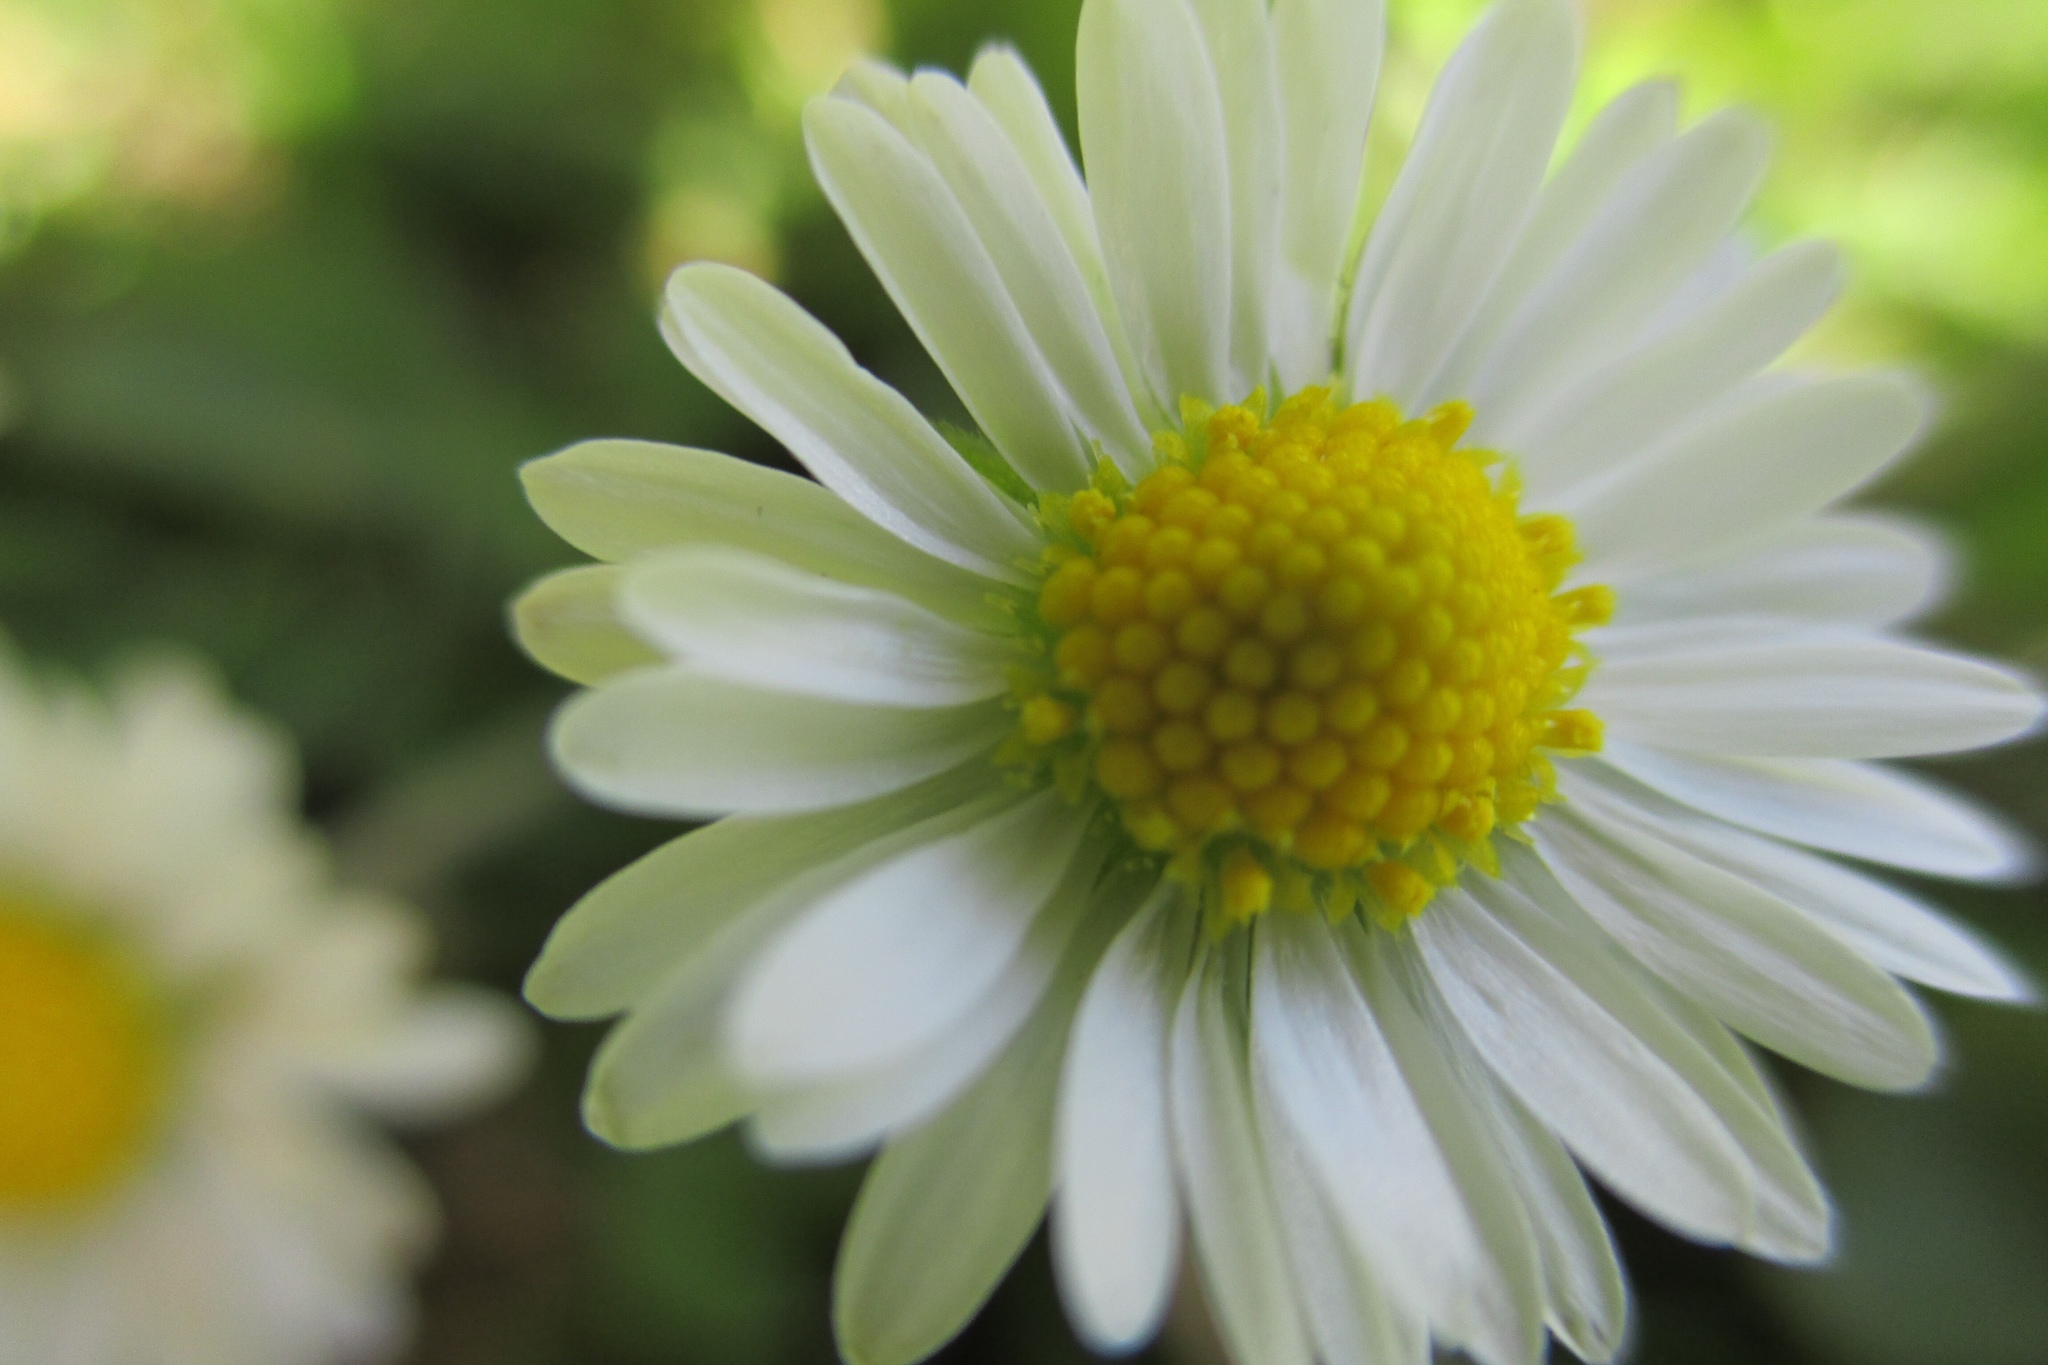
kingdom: Plantae
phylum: Tracheophyta
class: Magnoliopsida
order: Asterales
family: Asteraceae
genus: Bellis
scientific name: Bellis perennis
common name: Lawndaisy
